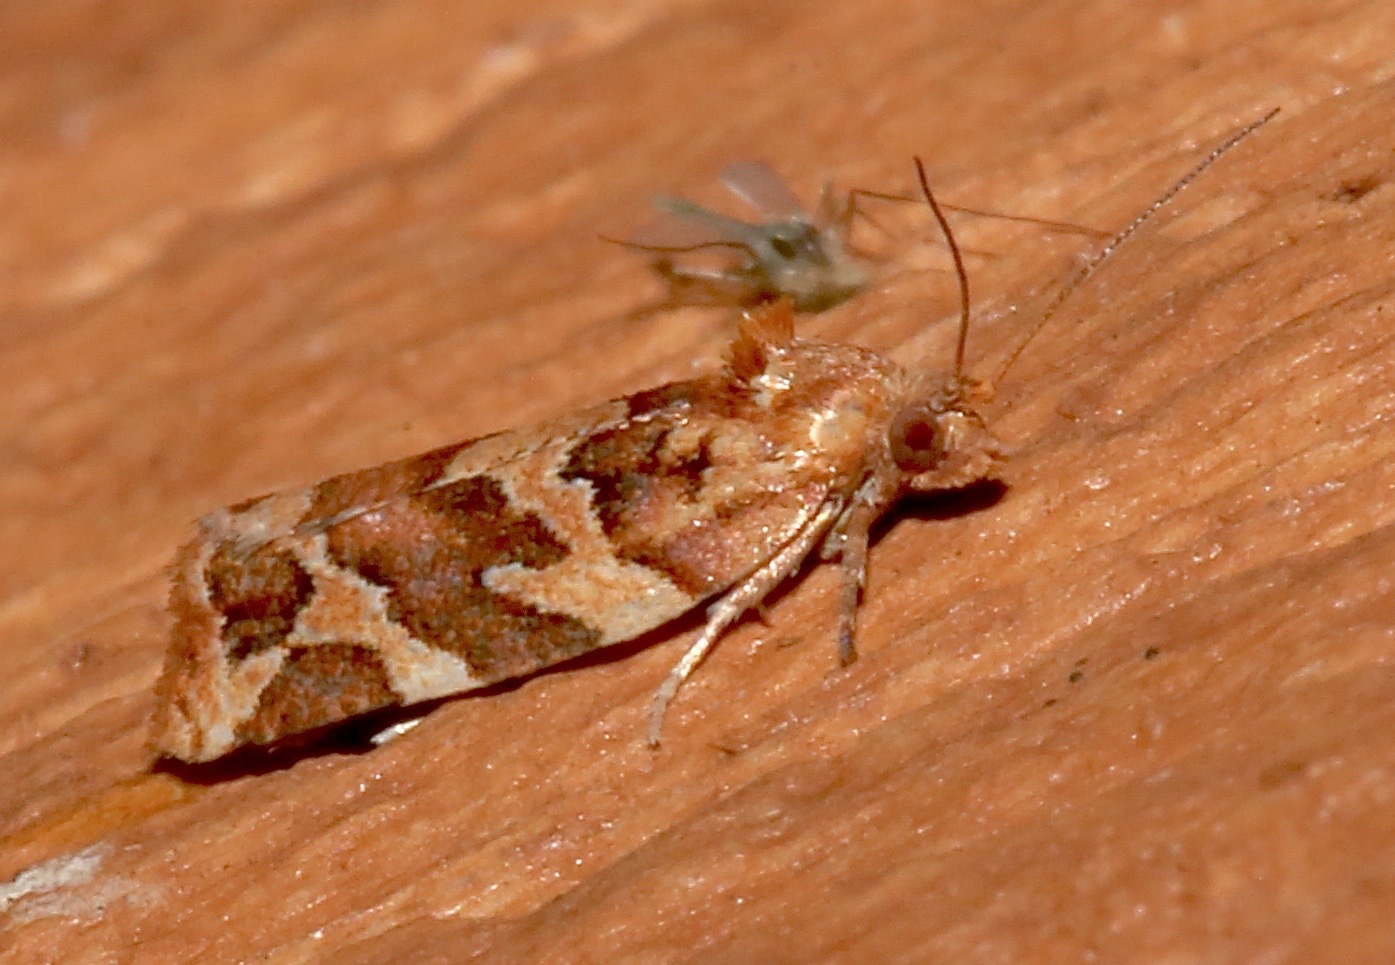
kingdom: Animalia
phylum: Arthropoda
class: Insecta
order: Lepidoptera
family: Tortricidae
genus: Argyrotaenia
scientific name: Argyrotaenia hodgesi
